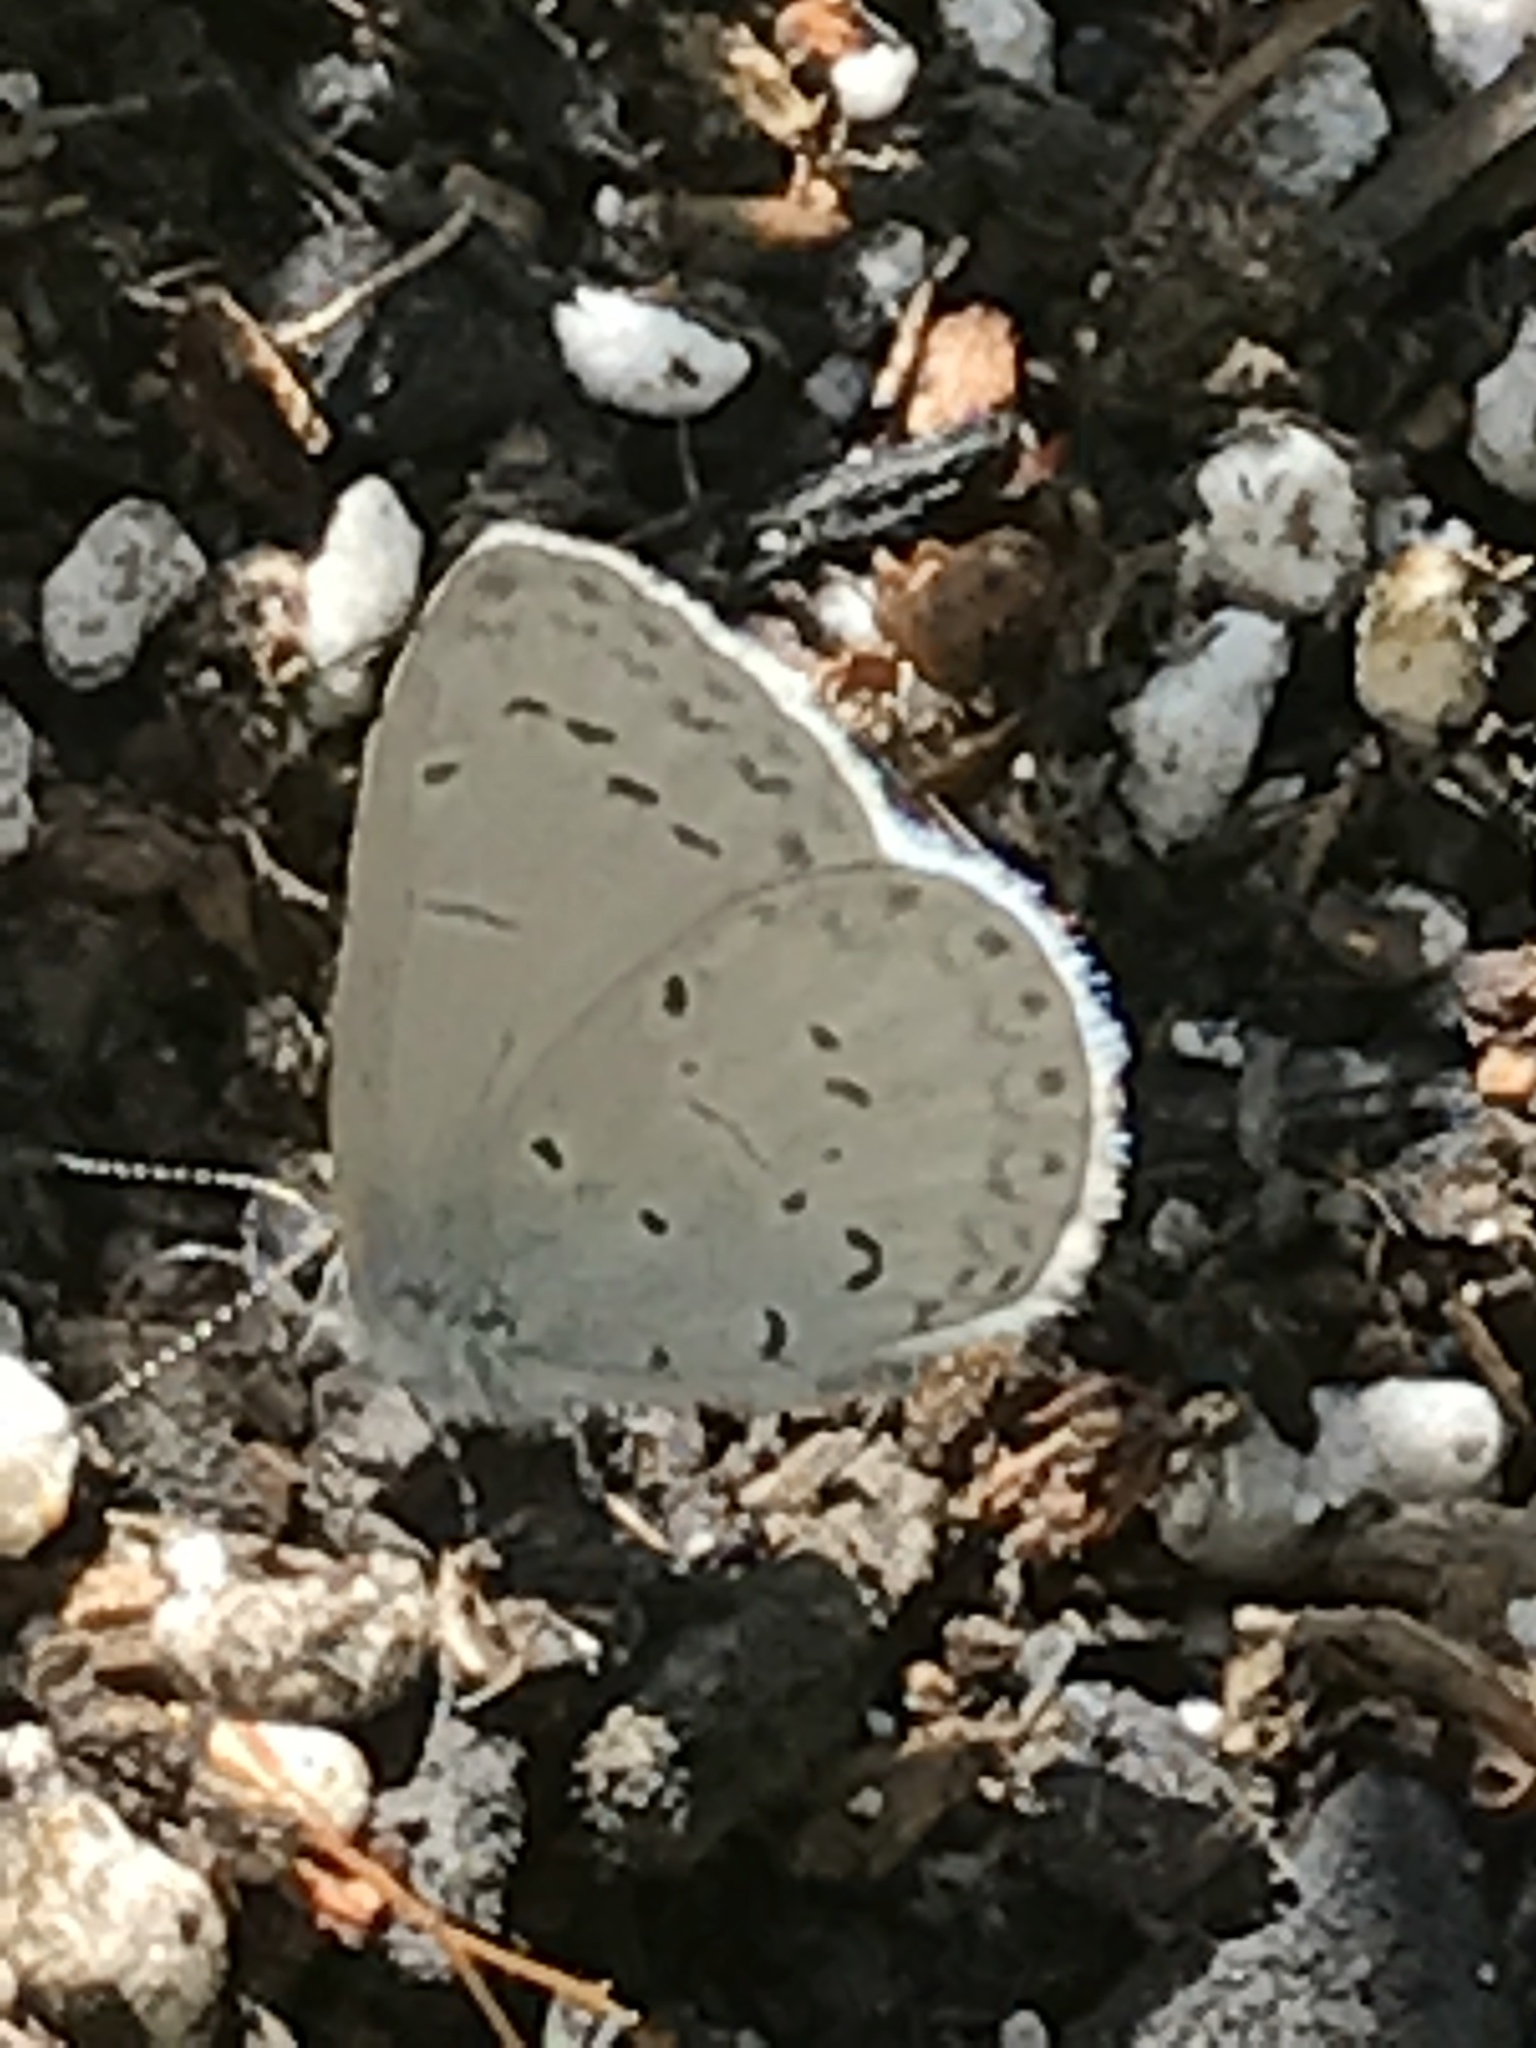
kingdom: Animalia
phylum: Arthropoda
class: Insecta
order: Lepidoptera
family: Lycaenidae
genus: Celastrina
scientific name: Celastrina ladon
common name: Spring azure
